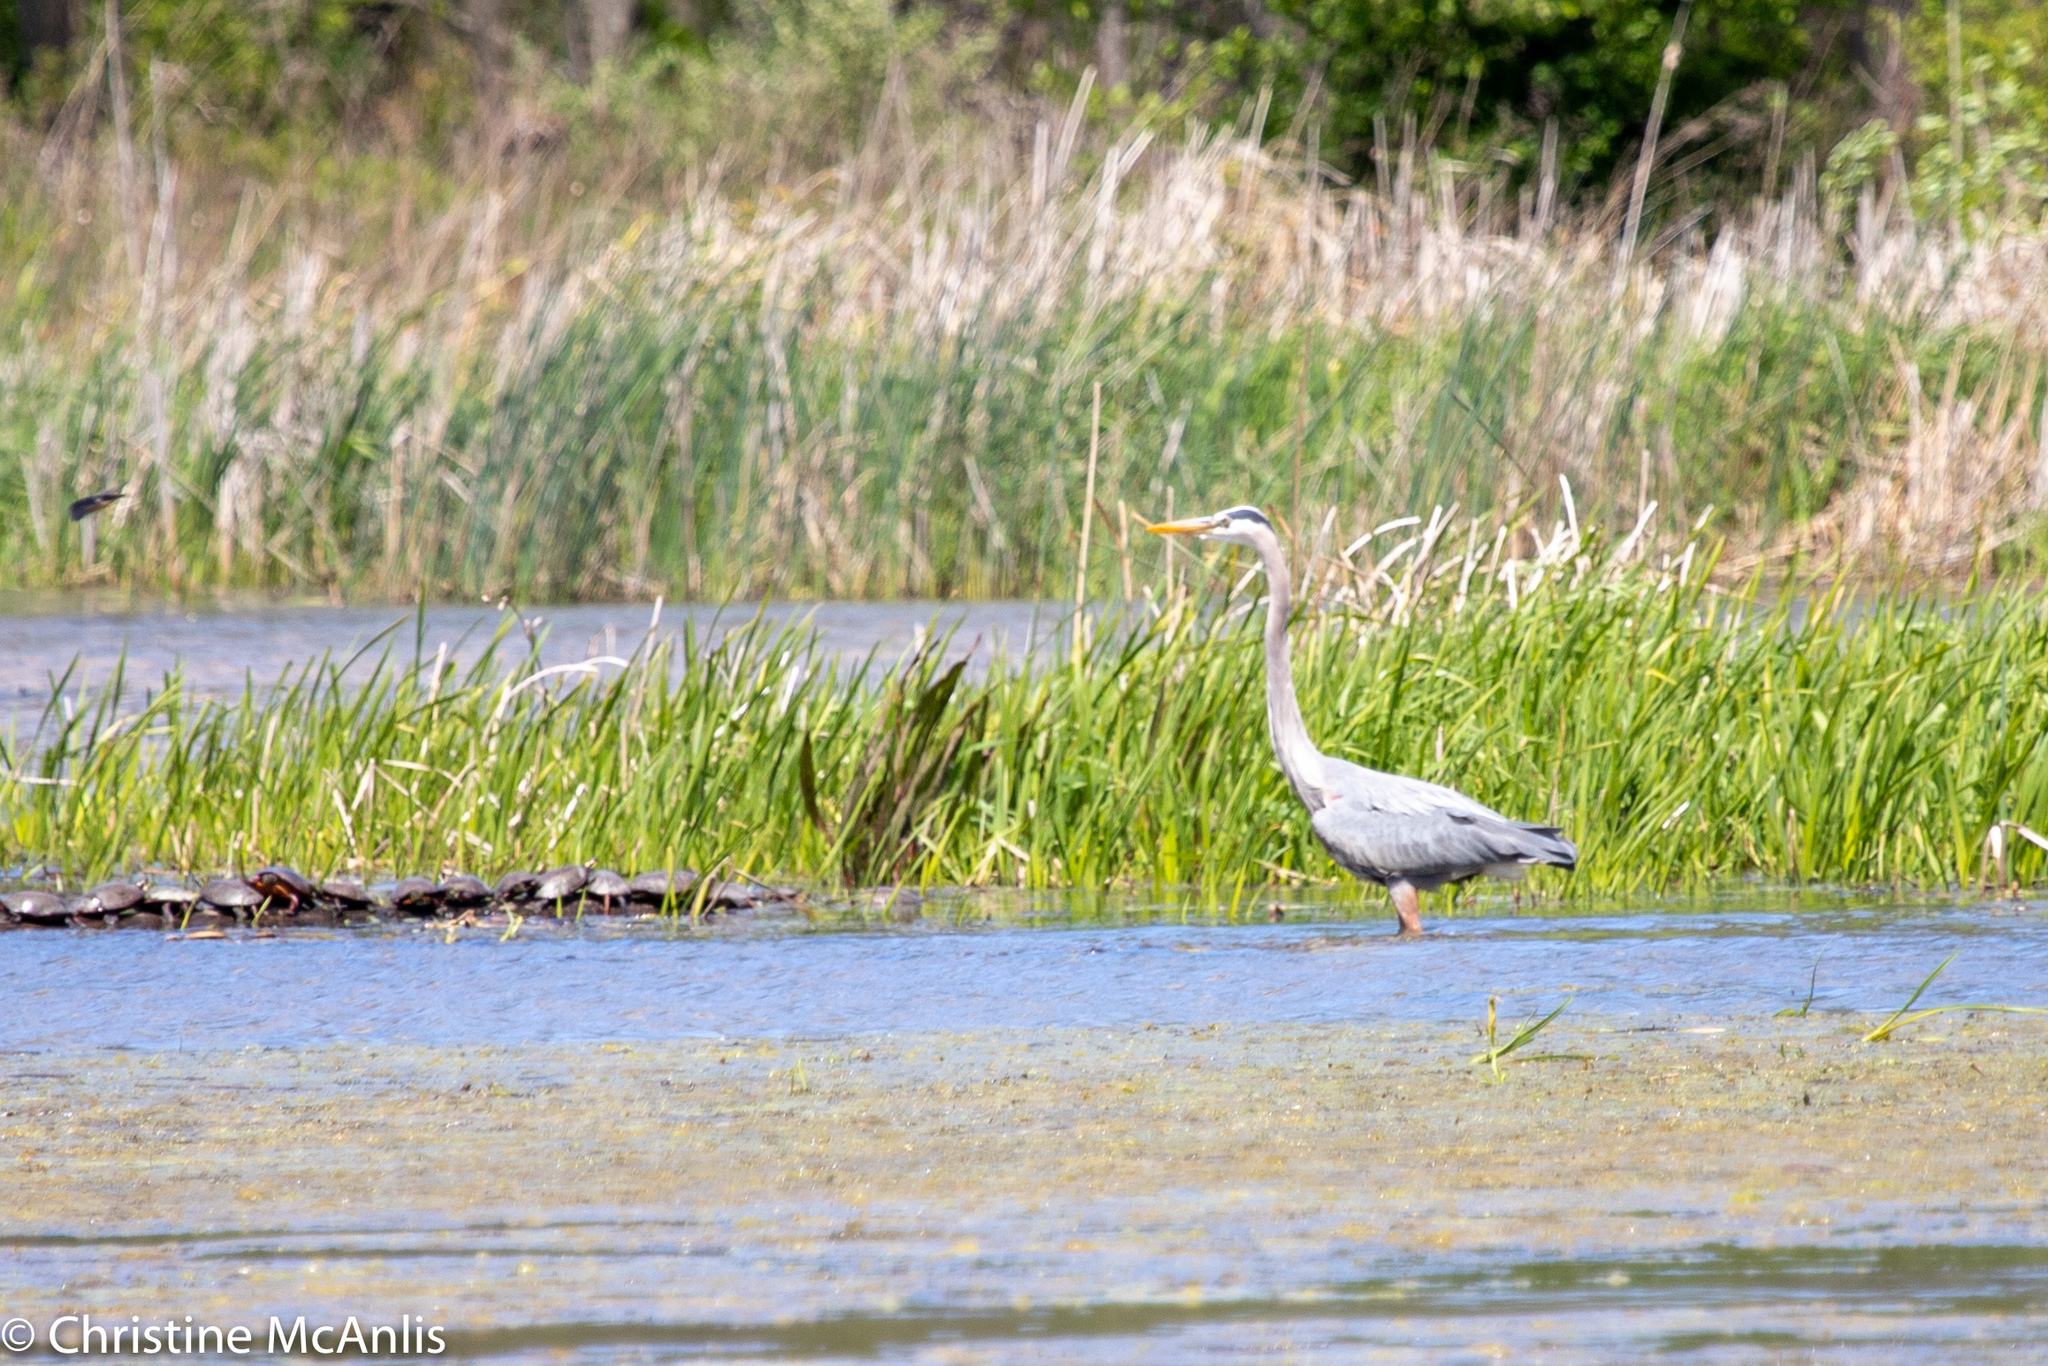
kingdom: Animalia
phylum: Chordata
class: Aves
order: Pelecaniformes
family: Ardeidae
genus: Ardea
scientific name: Ardea herodias
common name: Great blue heron
